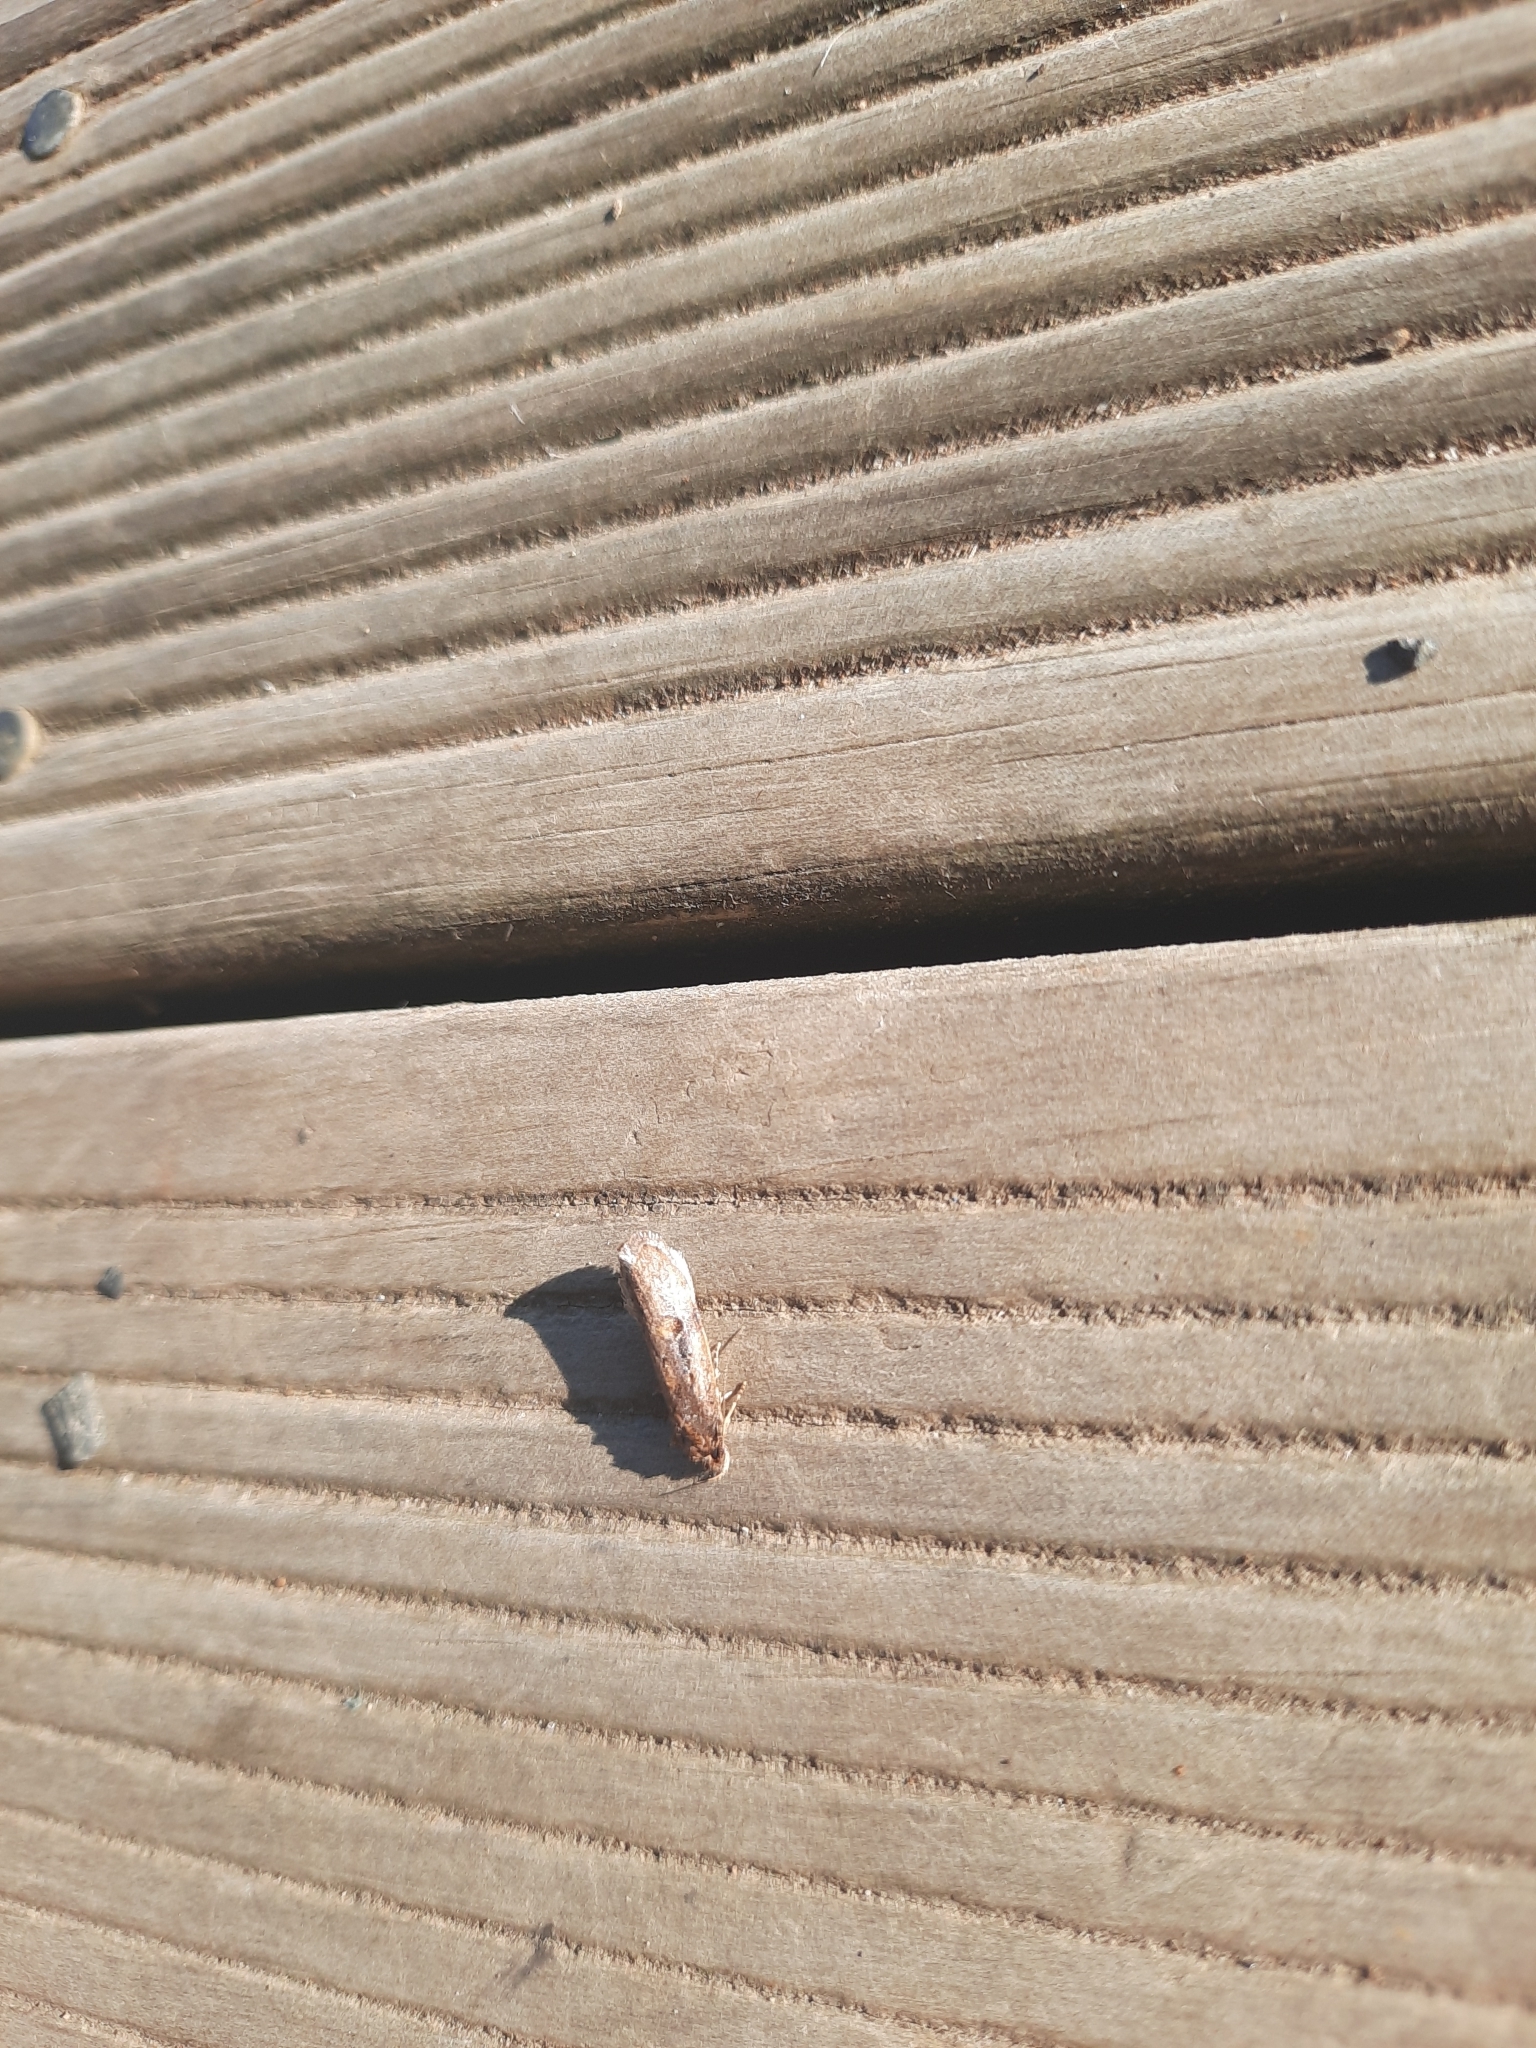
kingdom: Animalia
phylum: Arthropoda
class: Insecta
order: Lepidoptera
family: Oecophoridae
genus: Atomotricha
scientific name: Atomotricha isogama
